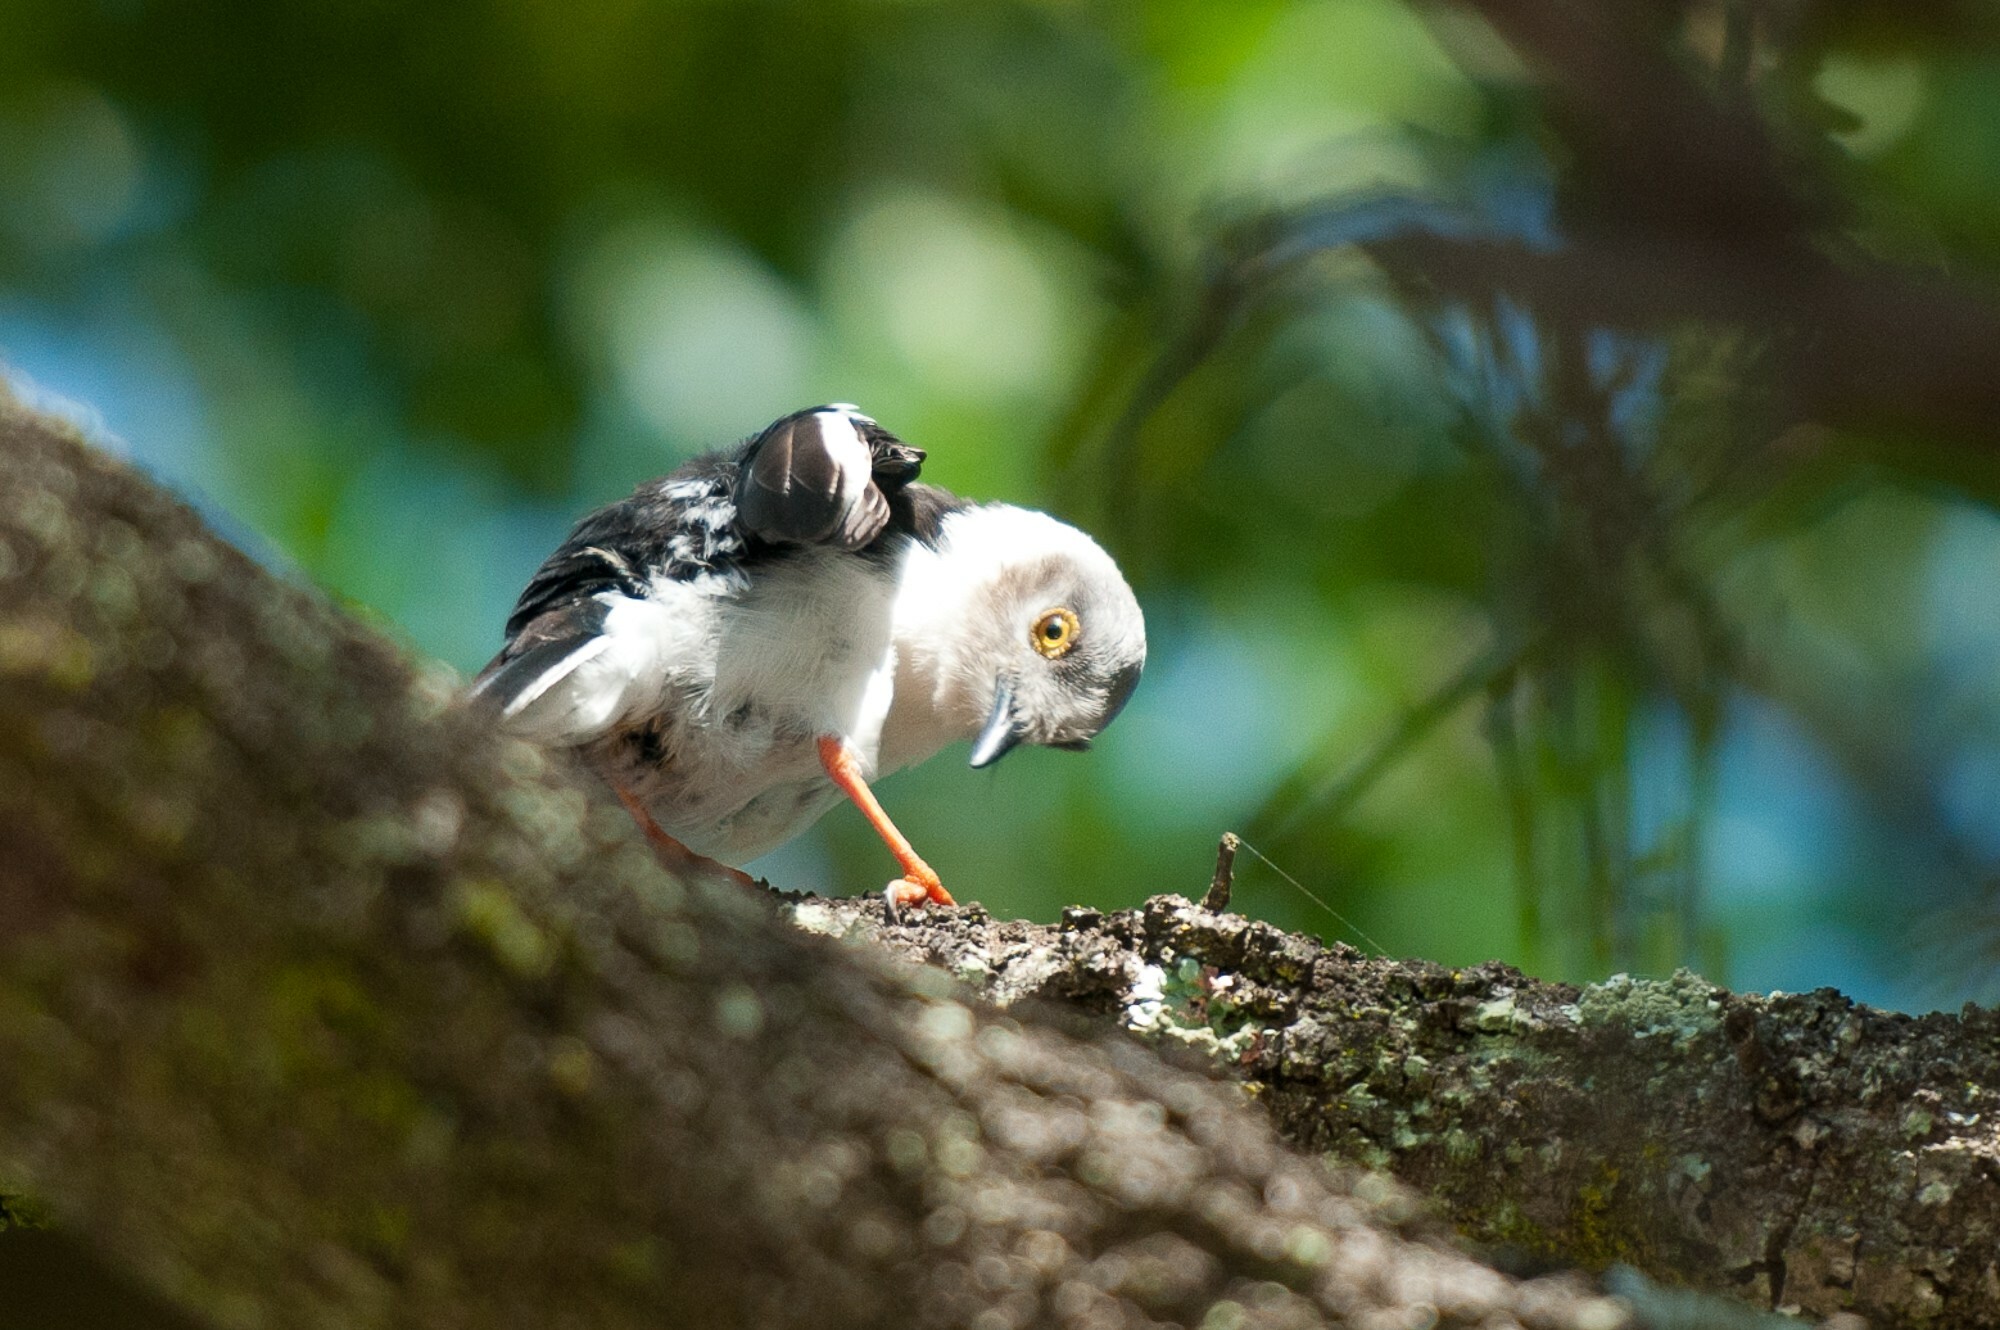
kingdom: Animalia
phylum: Chordata
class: Aves
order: Passeriformes
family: Prionopidae
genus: Prionops
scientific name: Prionops plumatus
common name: White-crested helmetshrike
